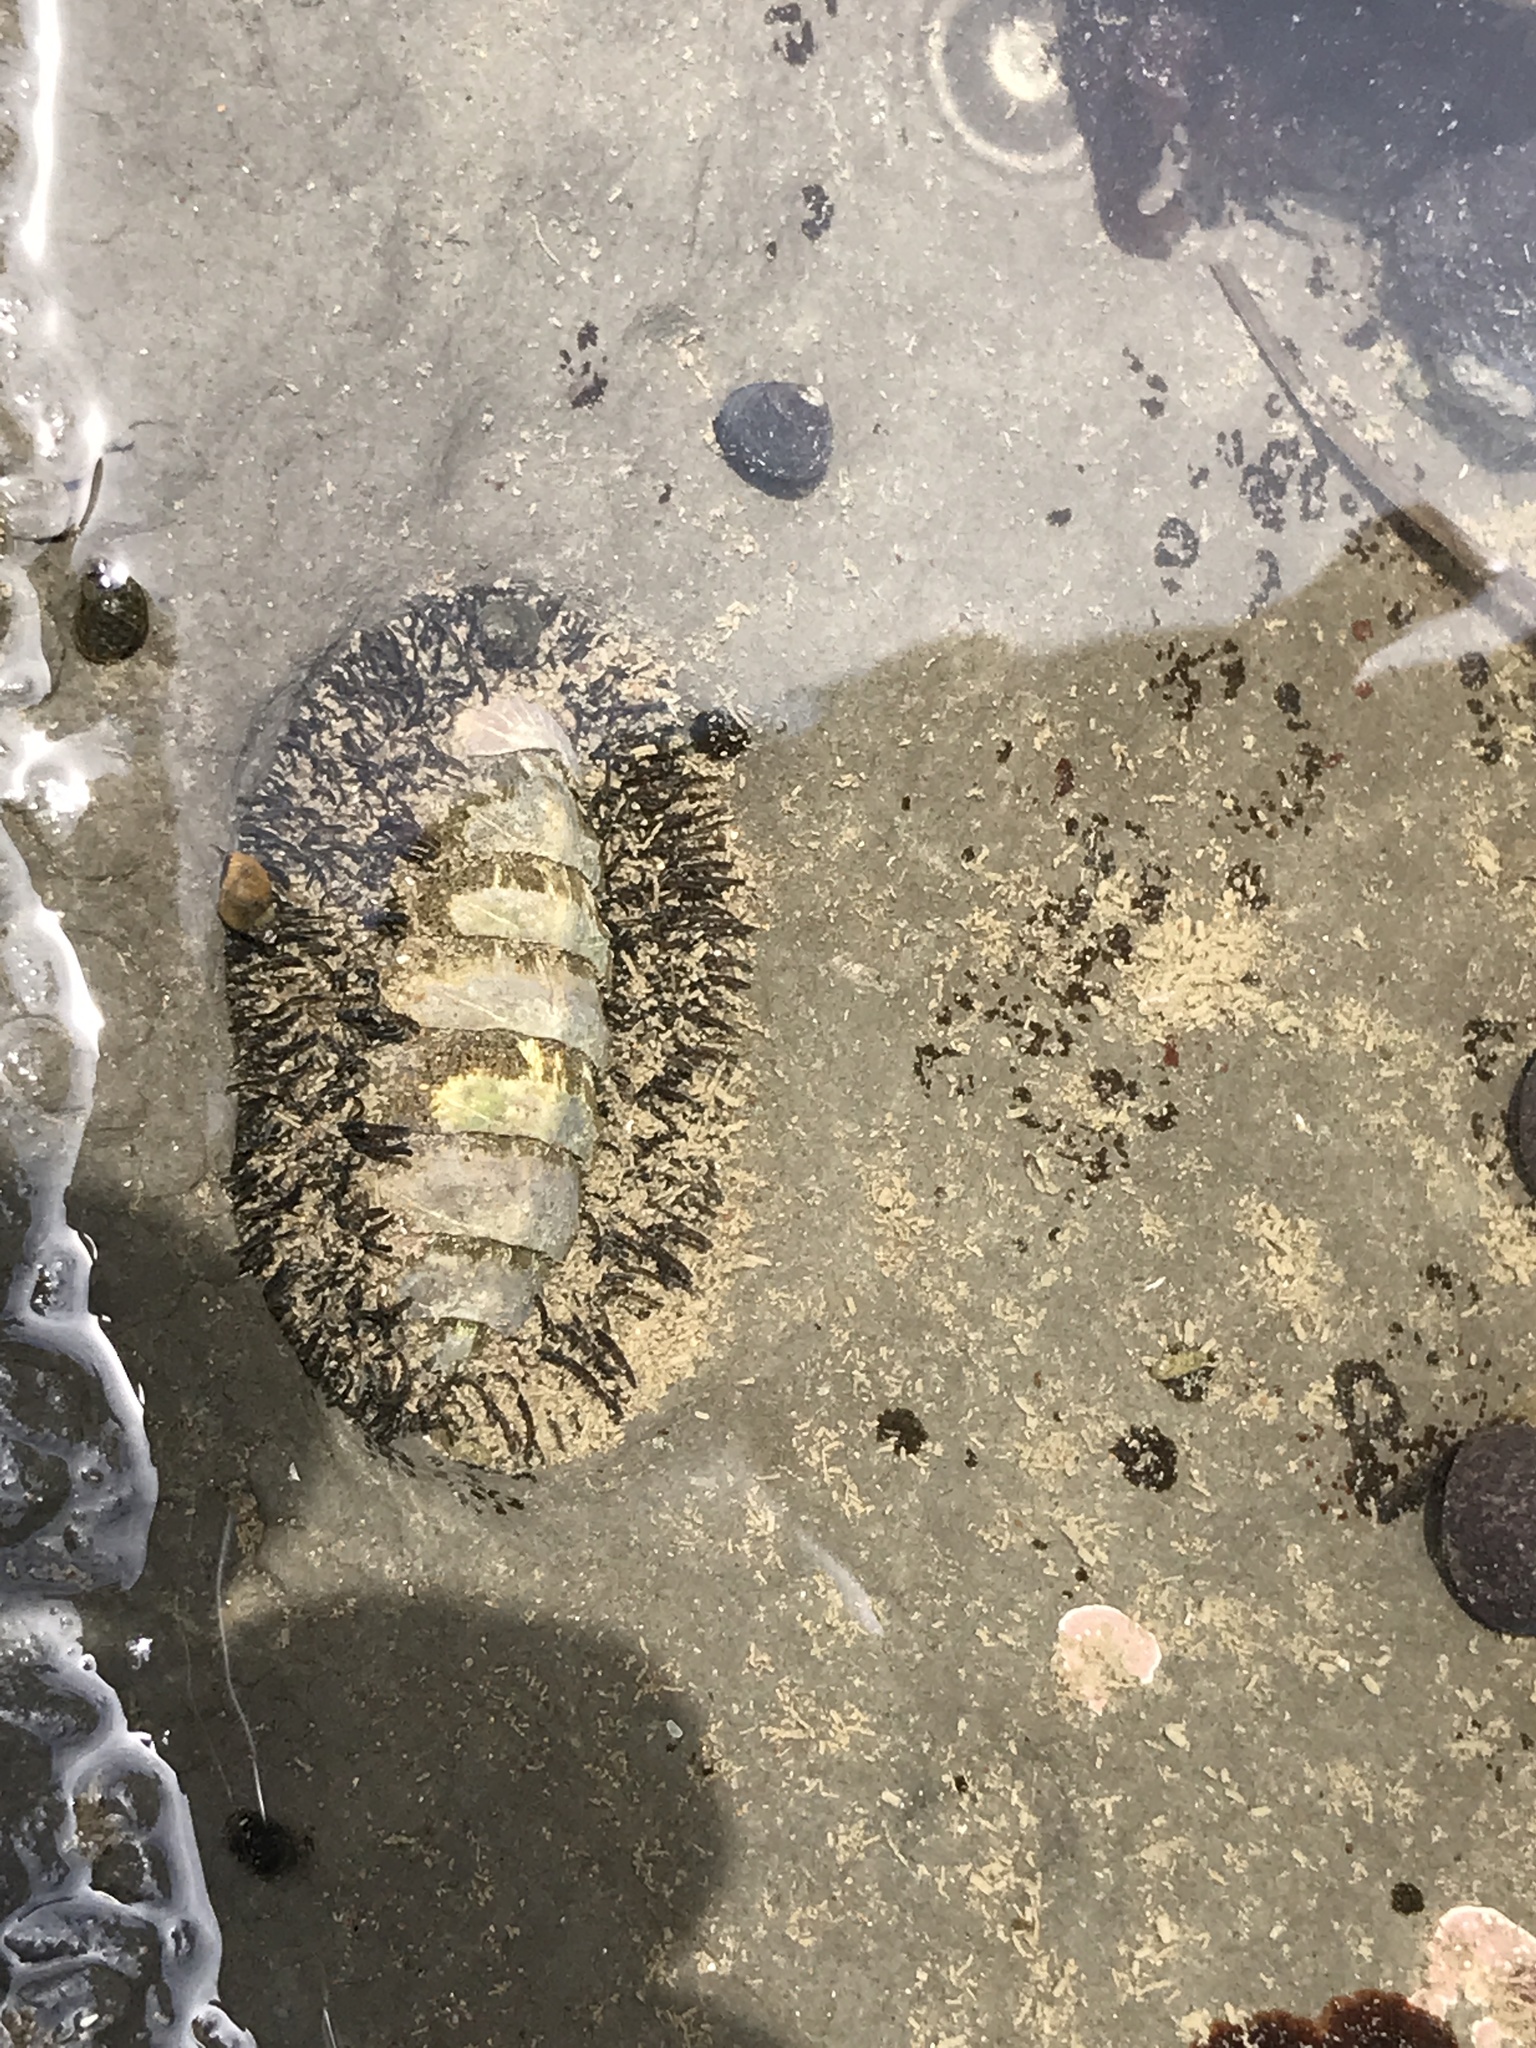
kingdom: Animalia
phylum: Mollusca
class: Polyplacophora
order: Chitonida
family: Mopaliidae
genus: Mopalia
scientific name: Mopalia muscosa
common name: Mossy chiton
